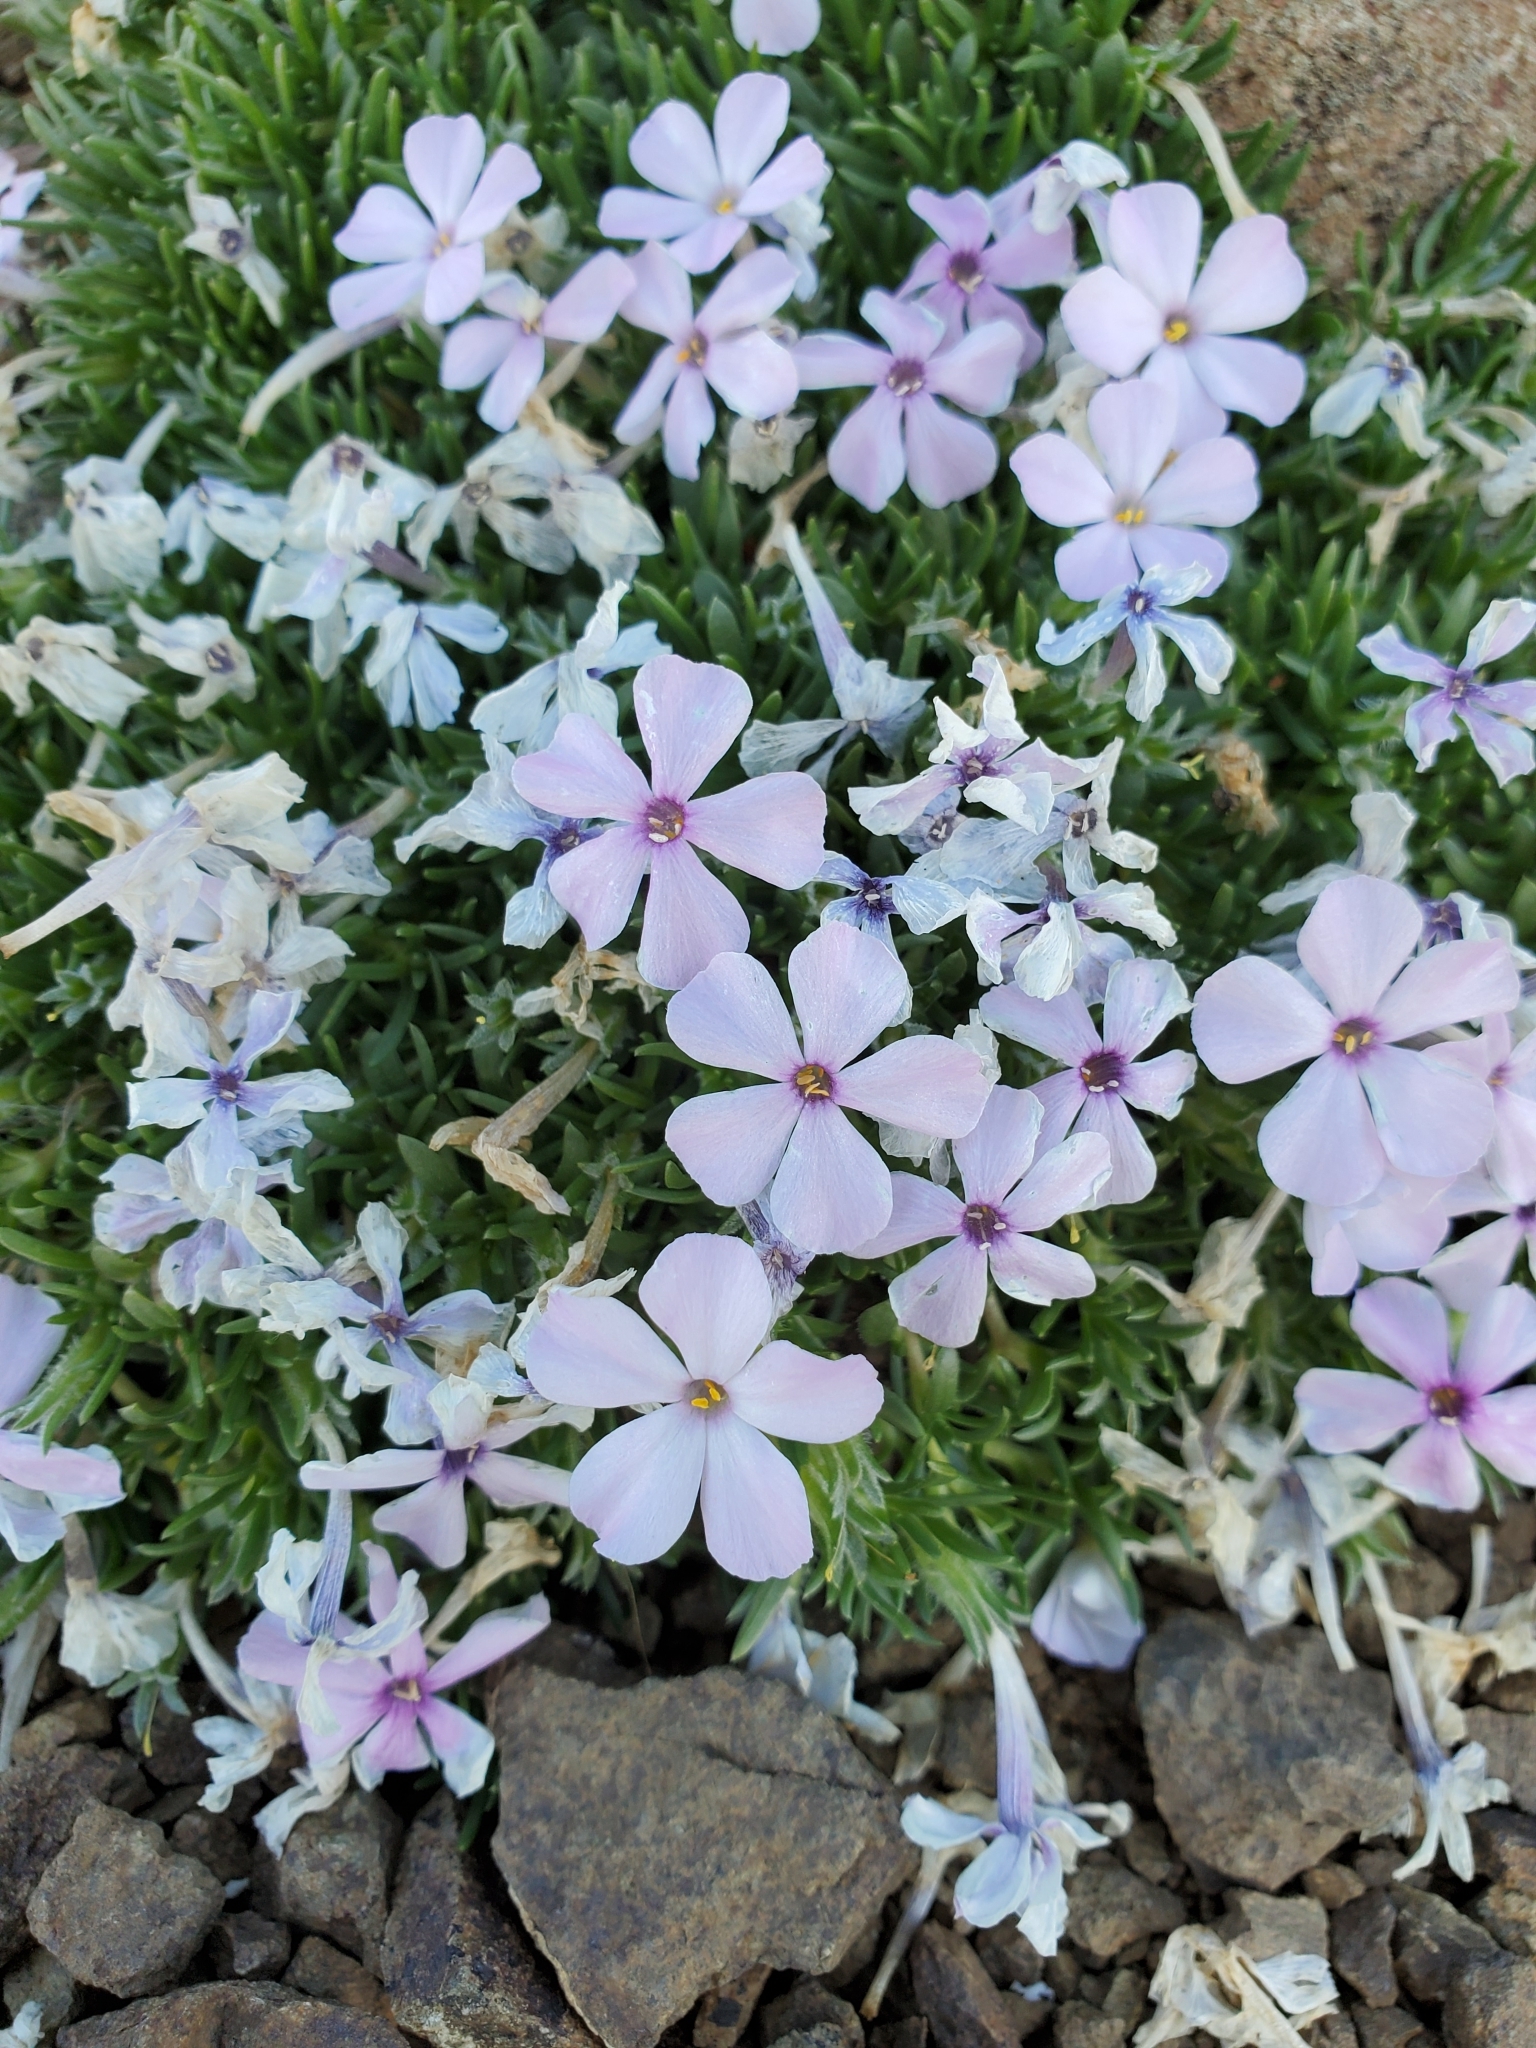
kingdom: Plantae
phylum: Tracheophyta
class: Magnoliopsida
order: Ericales
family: Polemoniaceae
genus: Phlox
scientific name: Phlox diffusa
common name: Mat phlox
